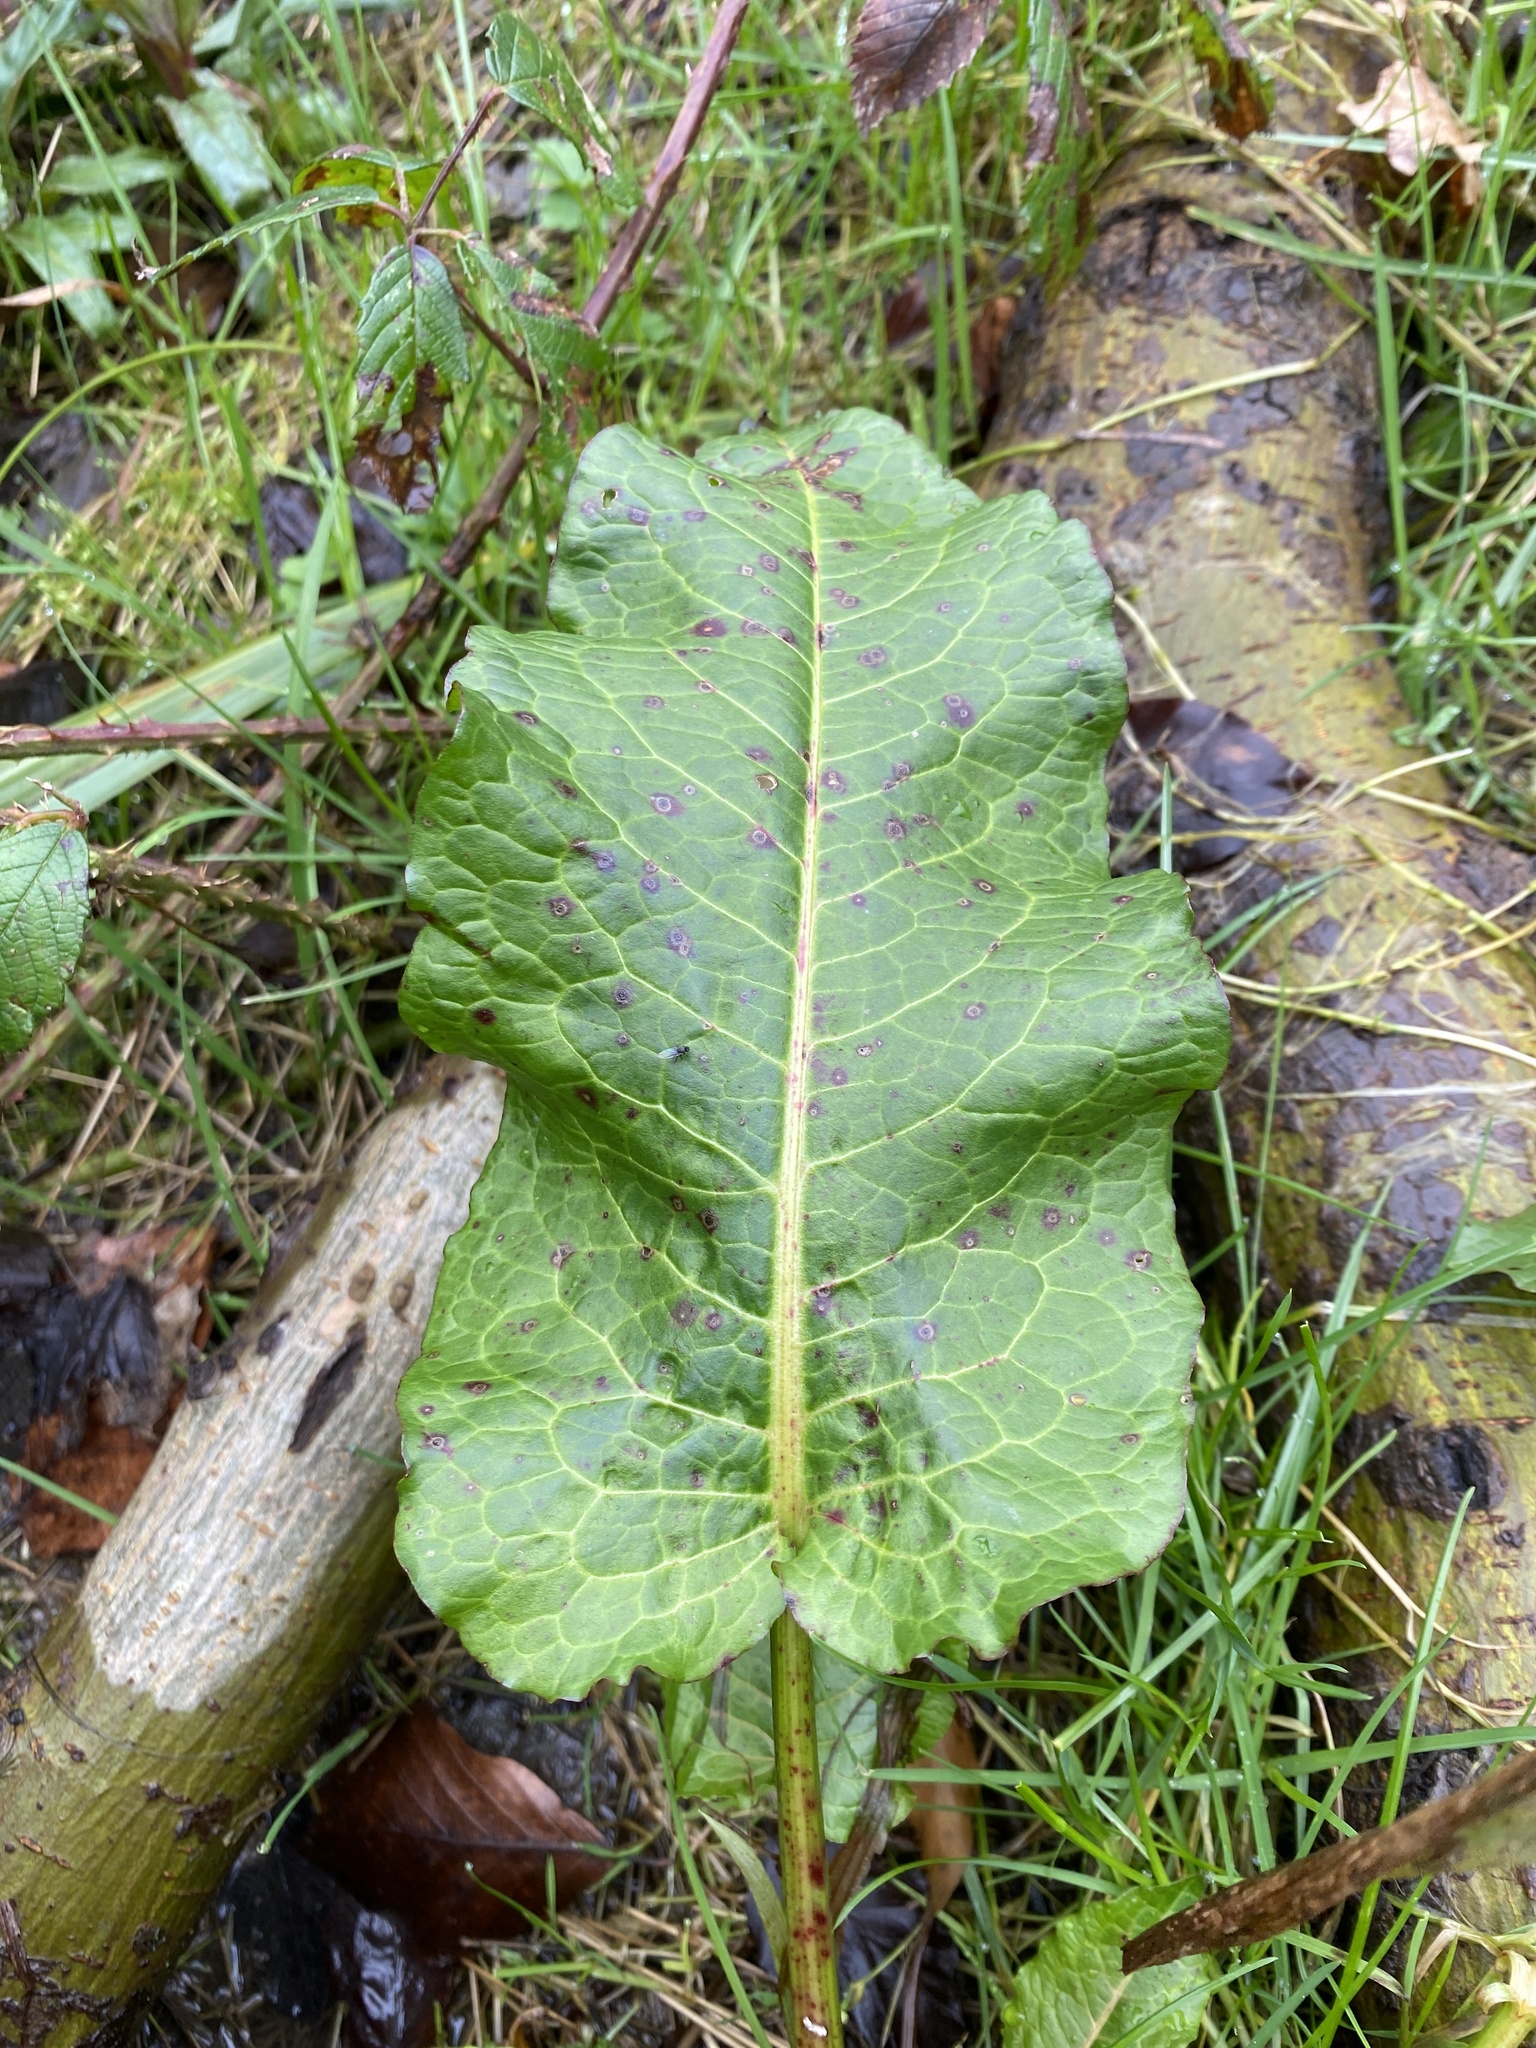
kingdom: Plantae
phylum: Tracheophyta
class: Magnoliopsida
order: Caryophyllales
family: Polygonaceae
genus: Rumex
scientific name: Rumex obtusifolius
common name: Bitter dock
